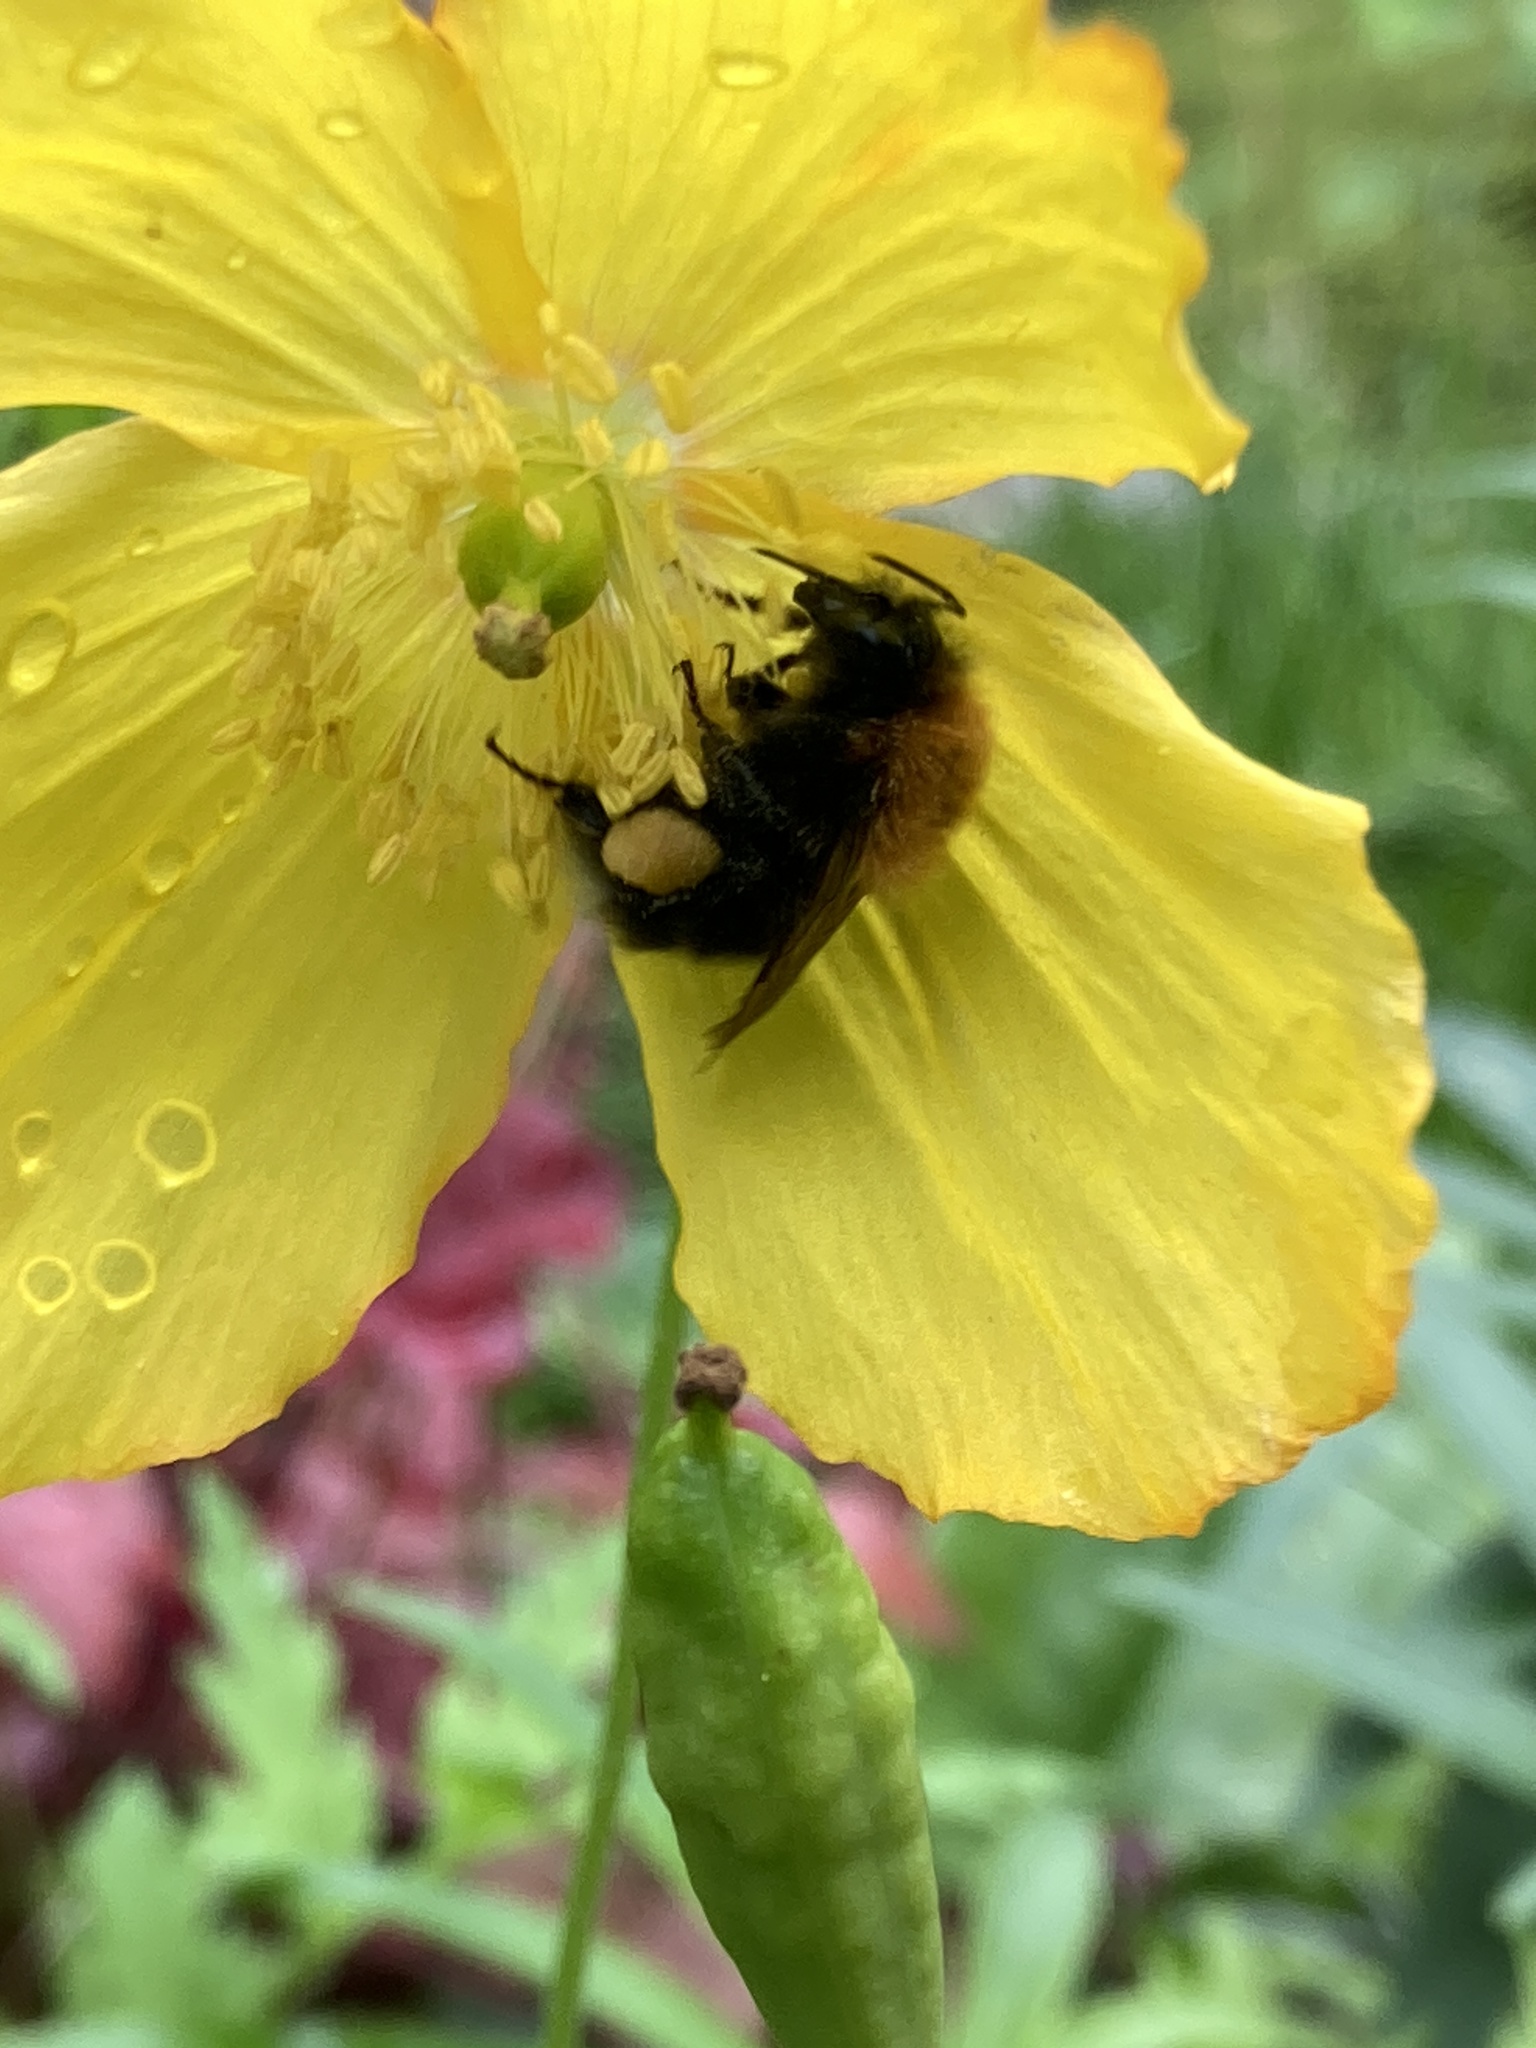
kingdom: Animalia
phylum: Arthropoda
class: Insecta
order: Hymenoptera
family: Apidae
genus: Bombus
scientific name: Bombus hypnorum
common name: New garden bumblebee
